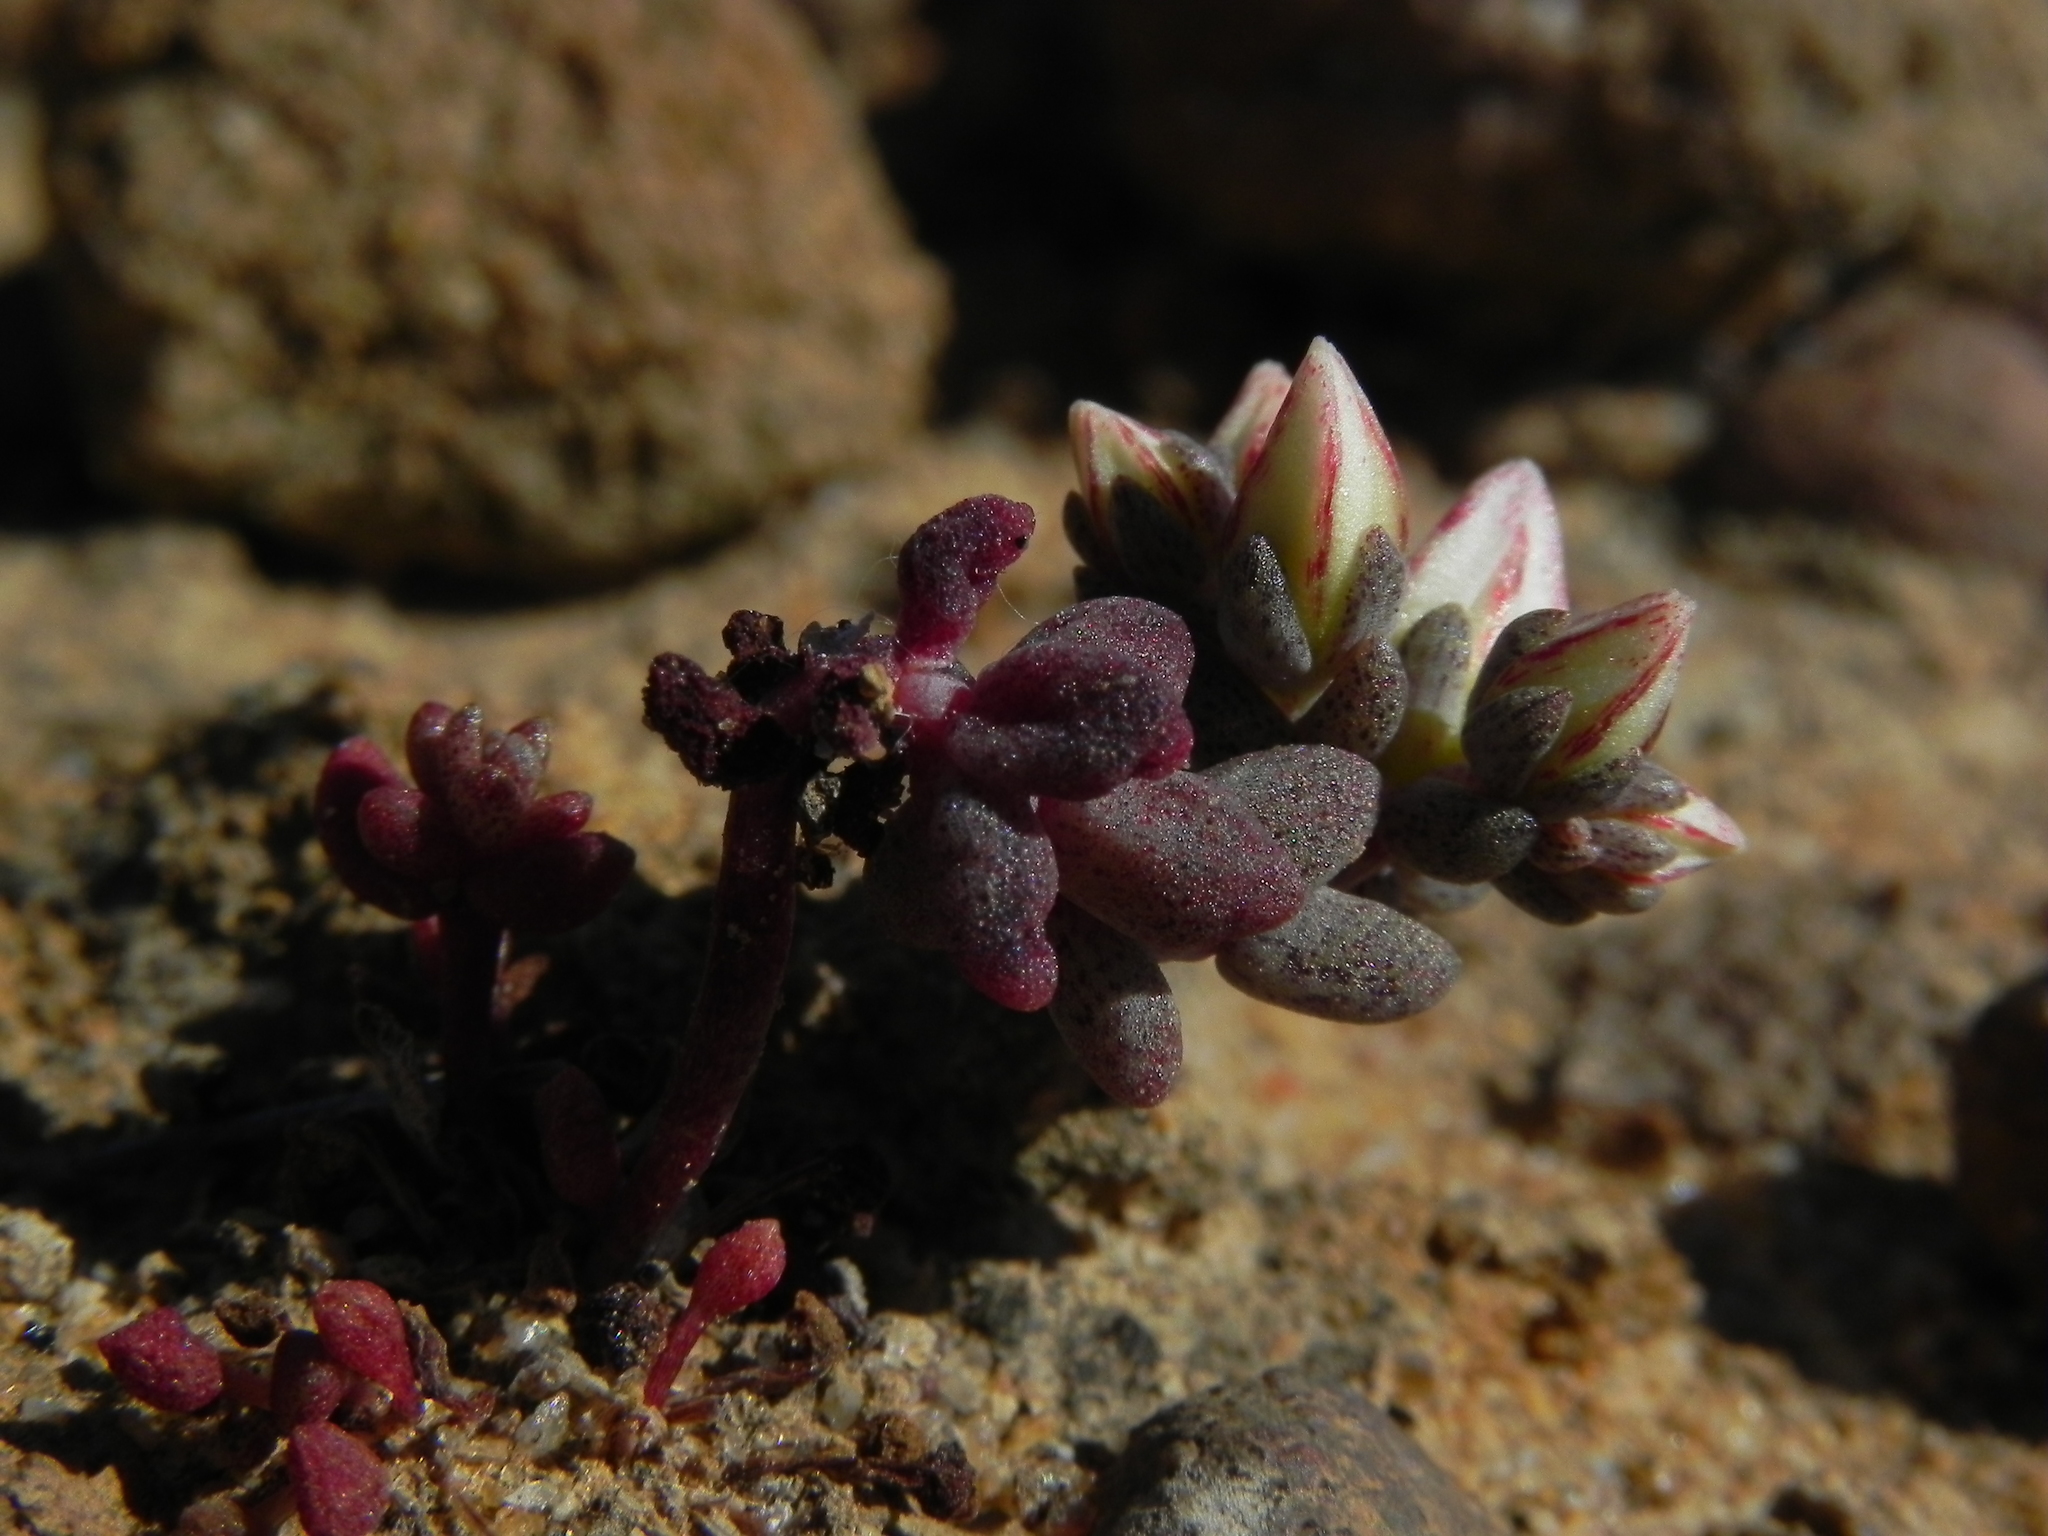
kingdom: Plantae
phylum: Tracheophyta
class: Magnoliopsida
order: Saxifragales
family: Crassulaceae
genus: Dudleya
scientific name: Dudleya blochmaniae
